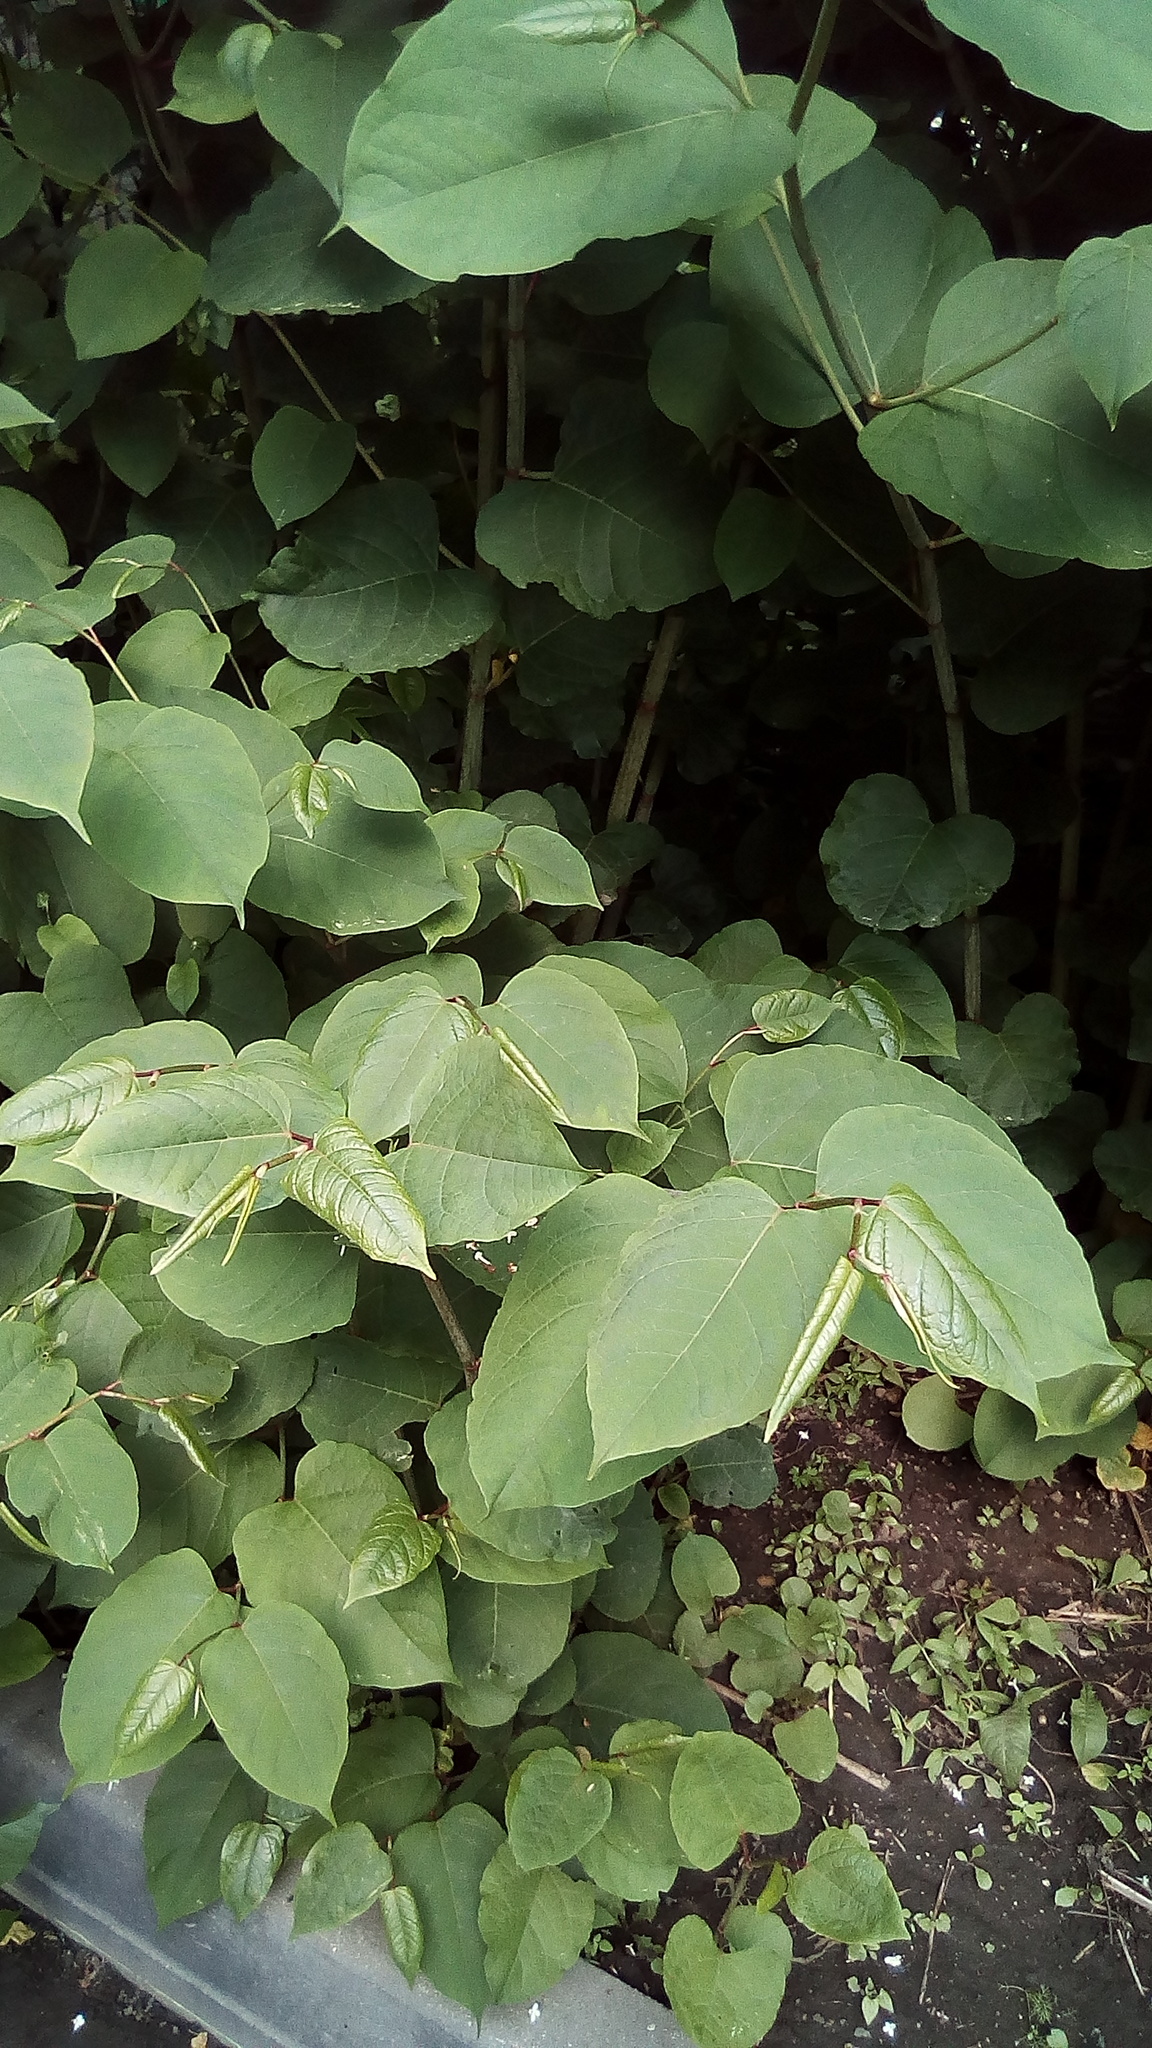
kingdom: Plantae
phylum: Tracheophyta
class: Magnoliopsida
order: Caryophyllales
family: Polygonaceae
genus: Reynoutria
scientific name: Reynoutria bohemica
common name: Bohemian knotweed
